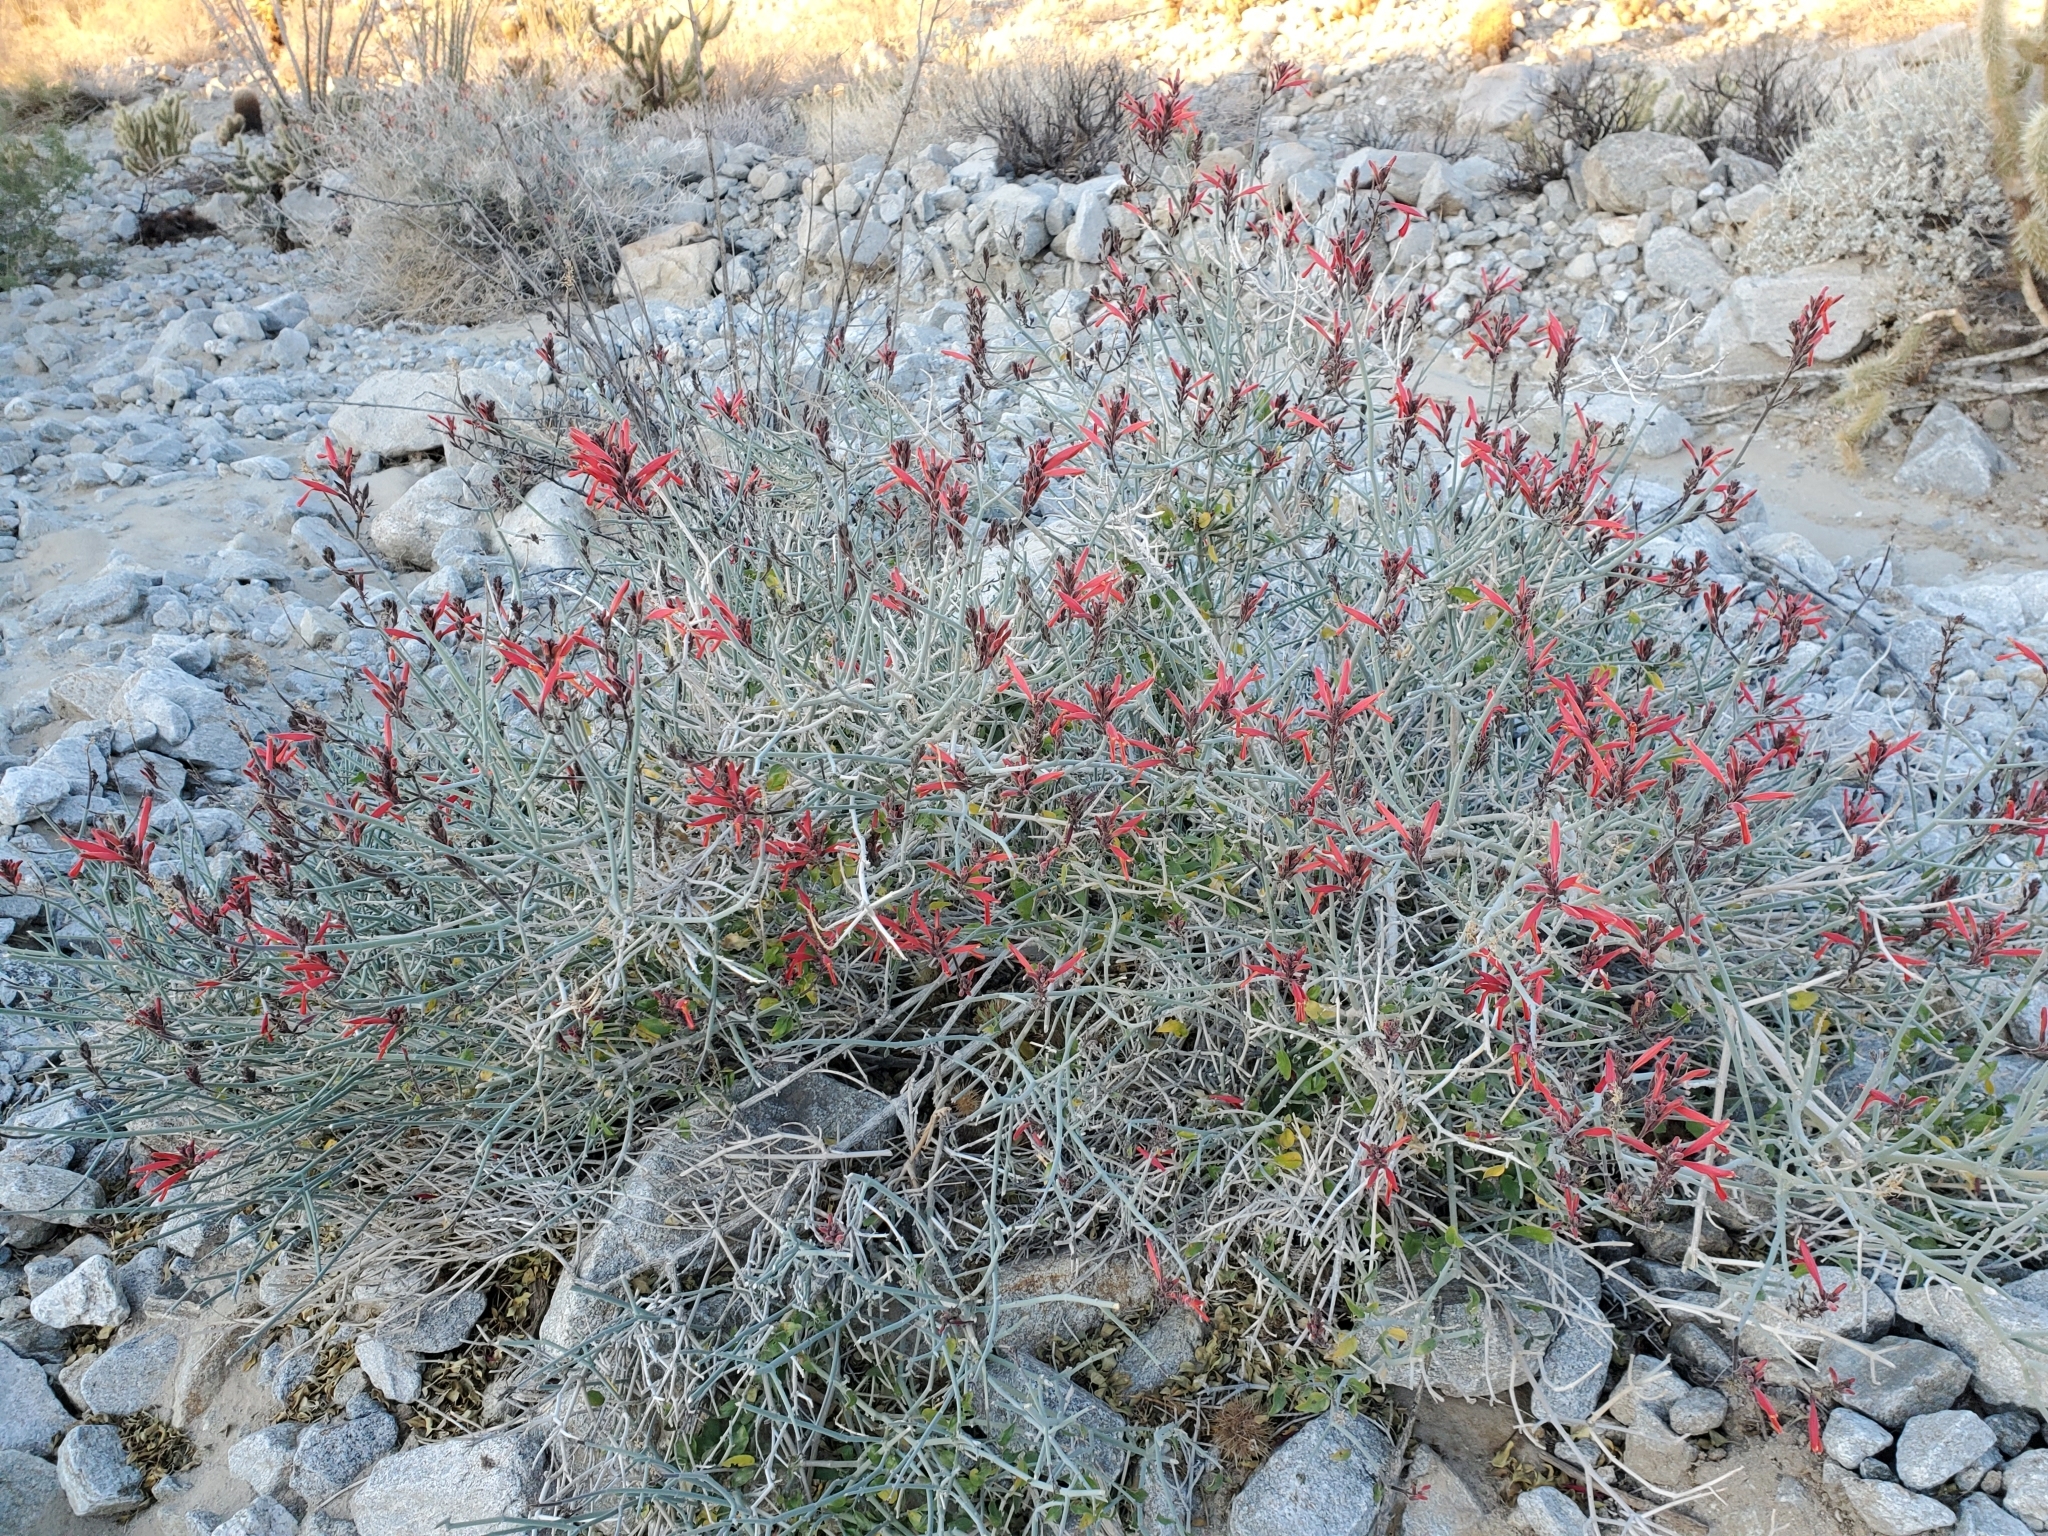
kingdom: Plantae
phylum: Tracheophyta
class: Magnoliopsida
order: Lamiales
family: Acanthaceae
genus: Justicia
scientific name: Justicia californica
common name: Chuparosa-honeysuckle
